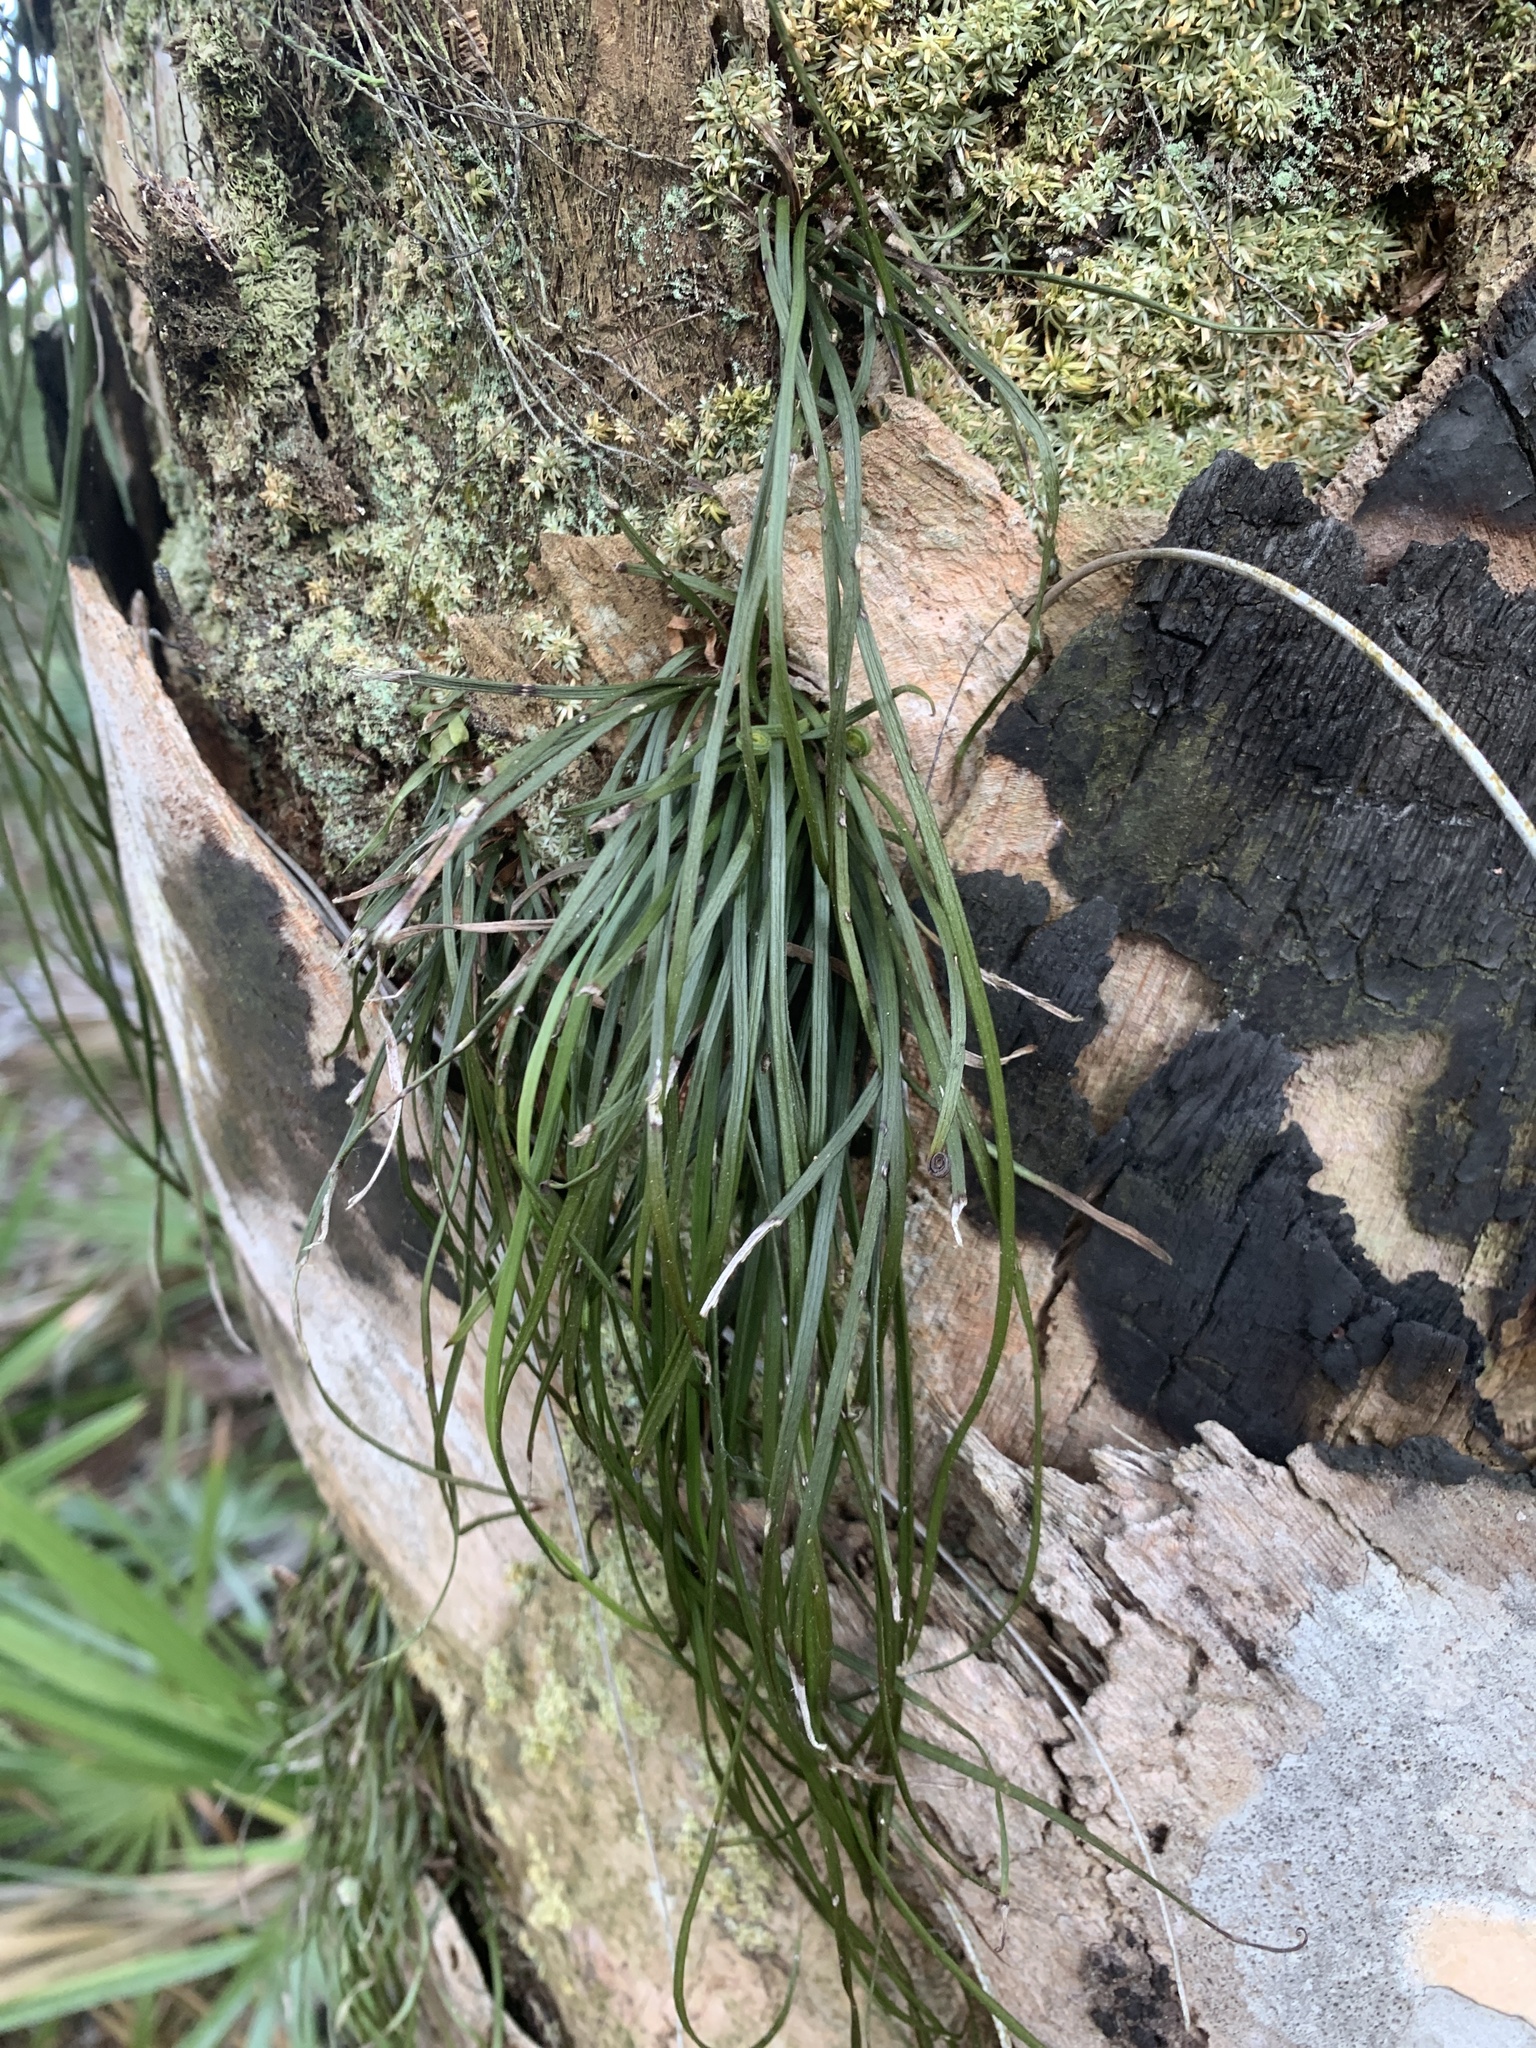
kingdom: Plantae
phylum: Tracheophyta
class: Polypodiopsida
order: Polypodiales
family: Pteridaceae
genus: Vittaria
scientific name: Vittaria lineata
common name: Shoestring fern
